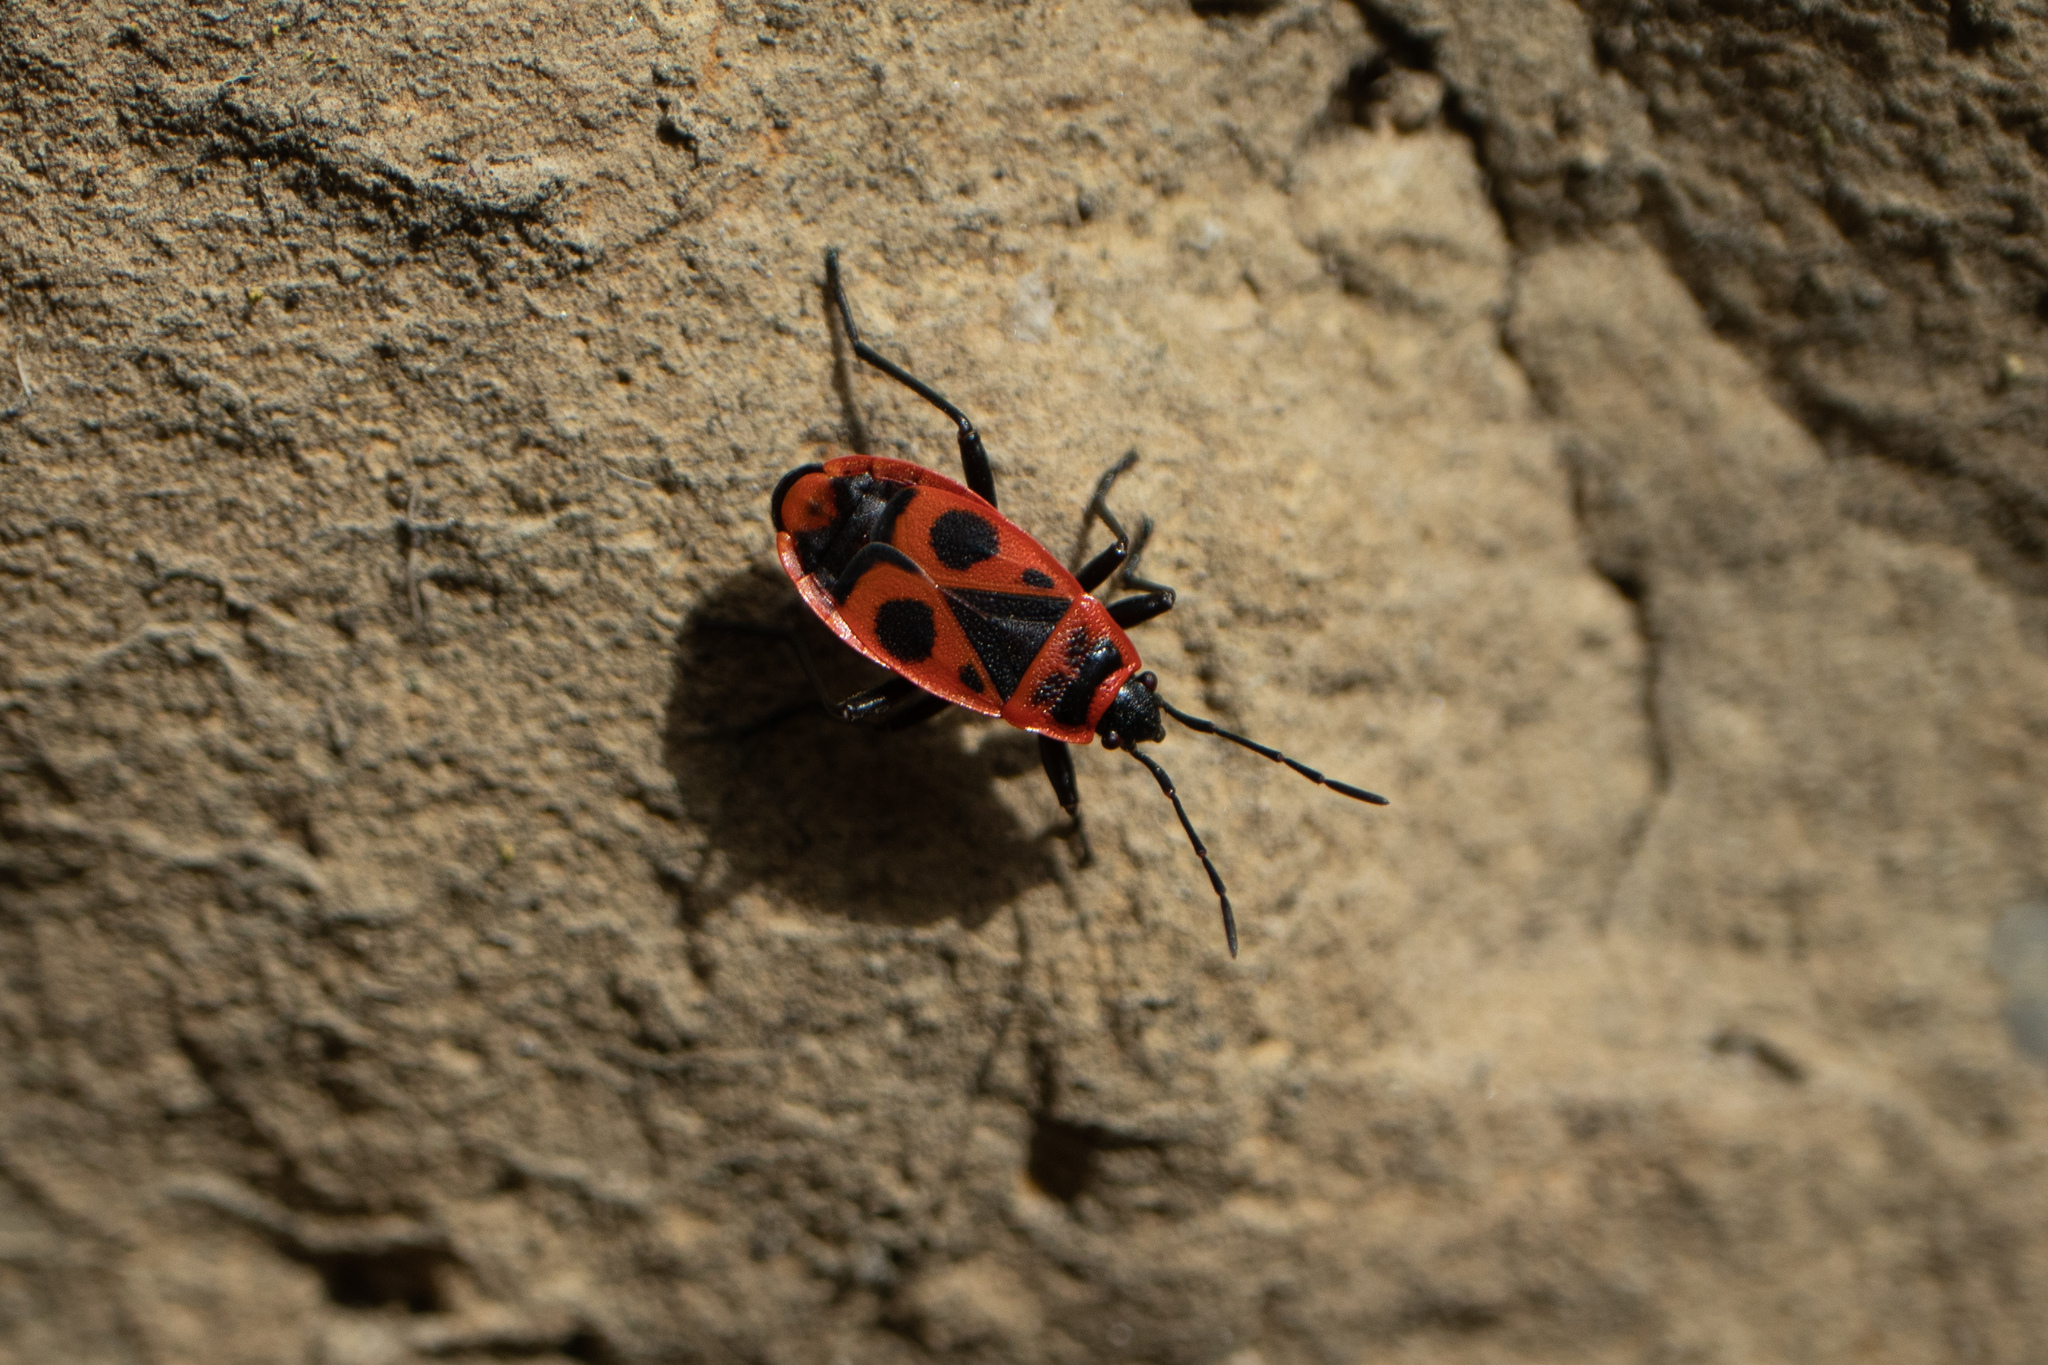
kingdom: Animalia
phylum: Arthropoda
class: Insecta
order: Hemiptera
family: Pyrrhocoridae
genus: Pyrrhocoris
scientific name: Pyrrhocoris apterus
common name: Firebug
